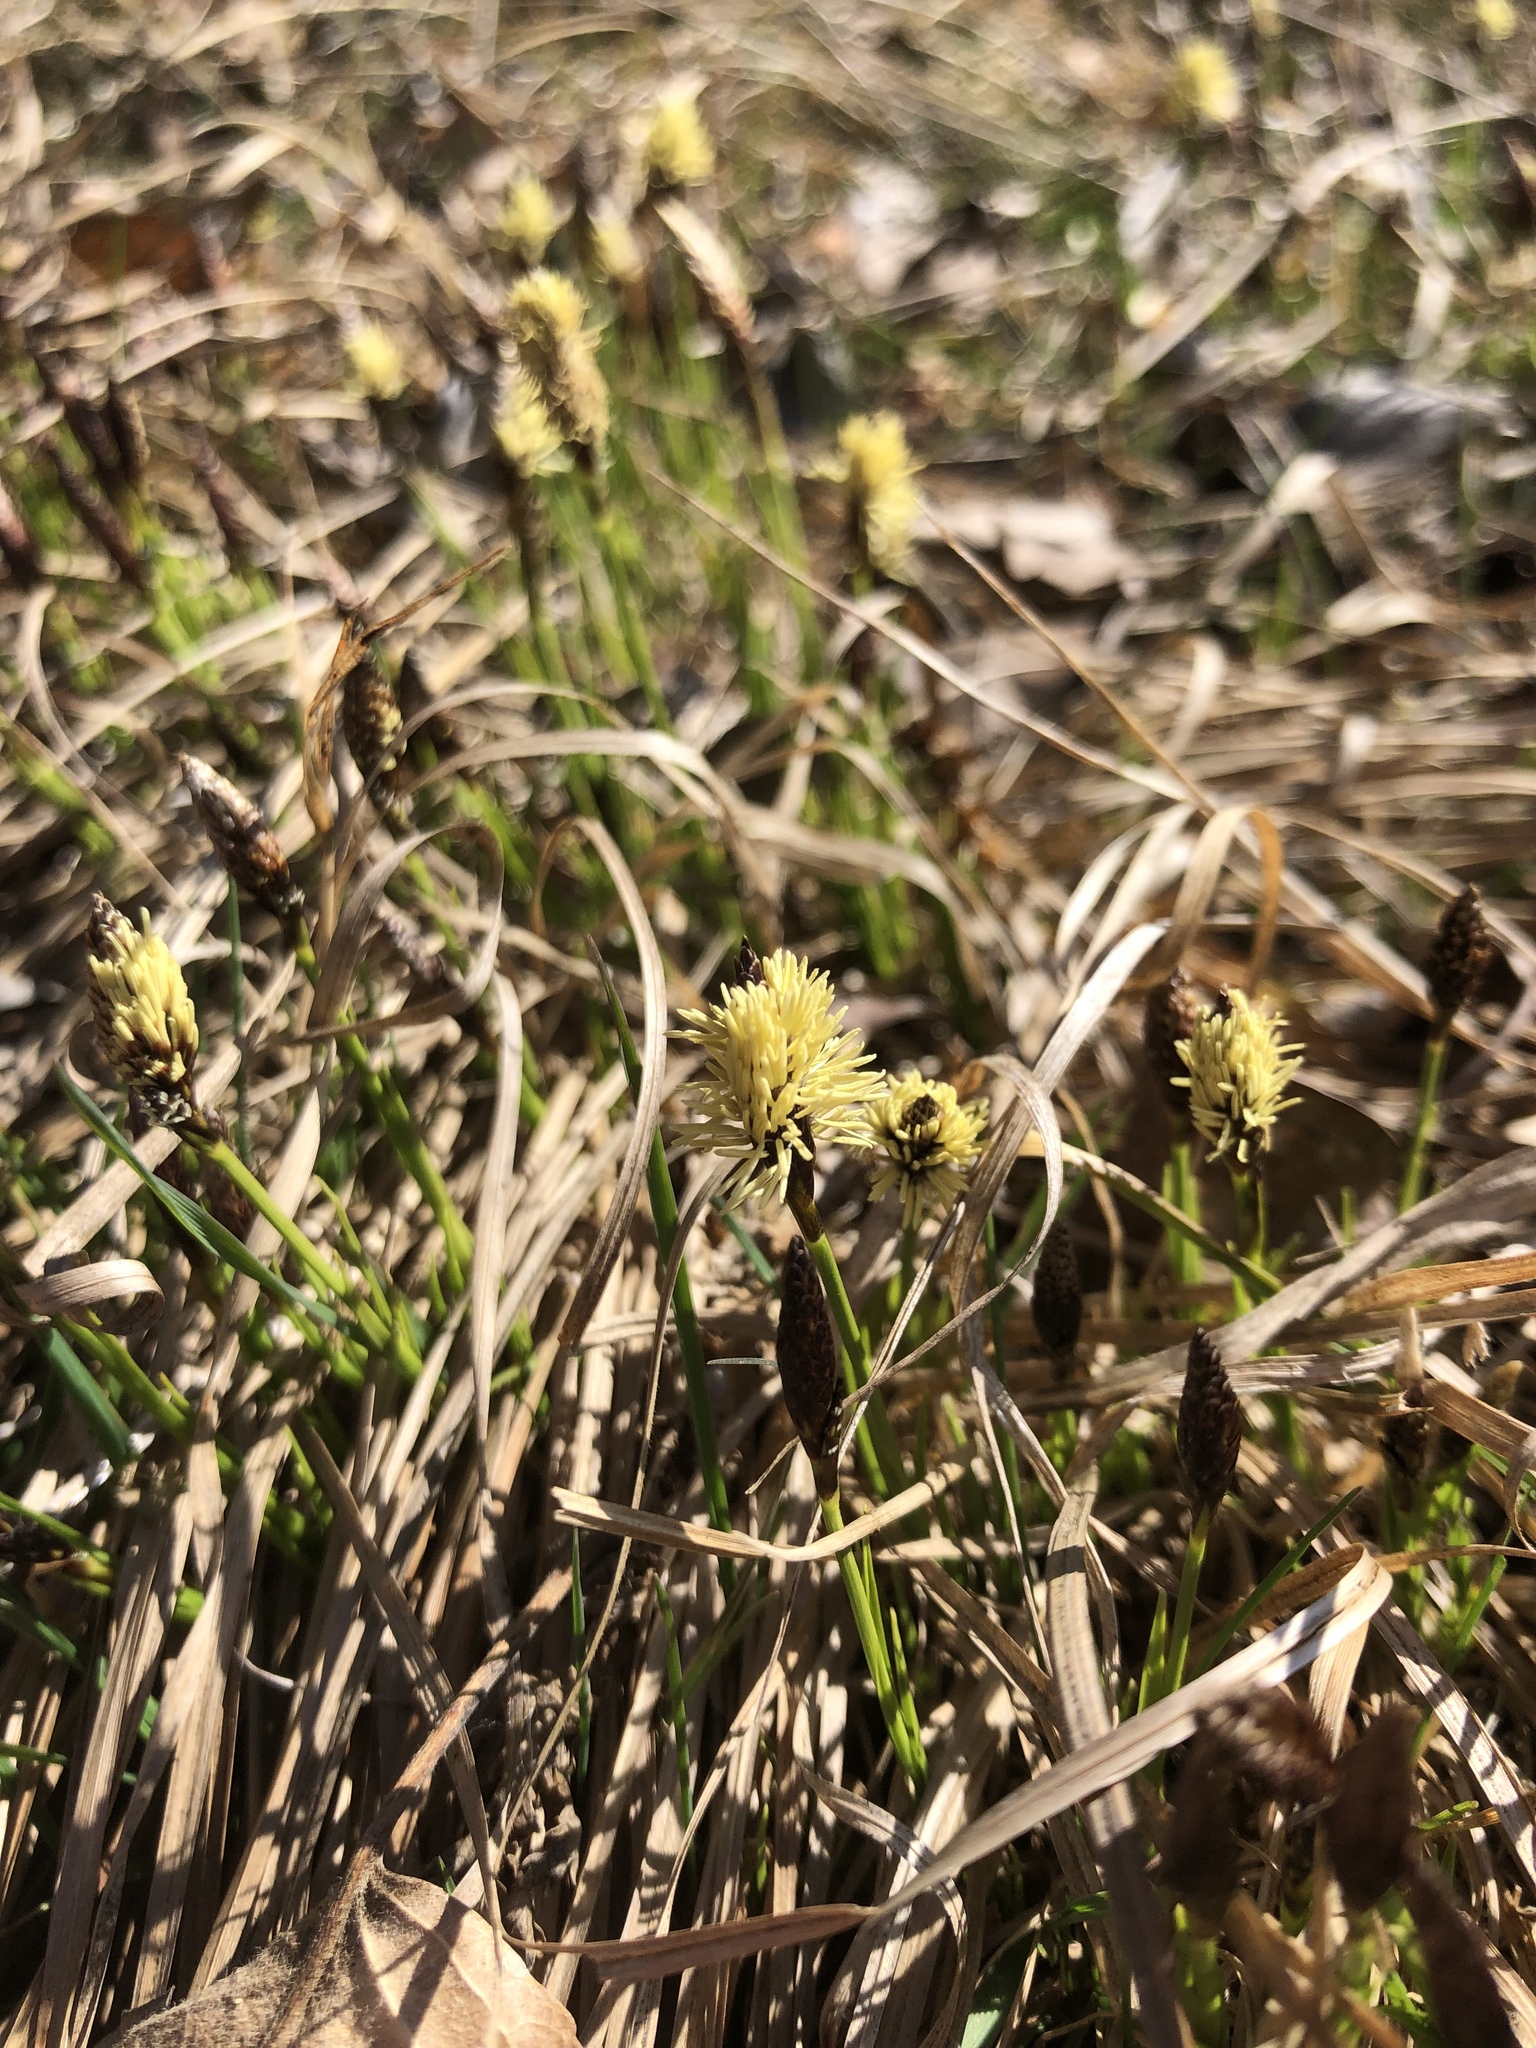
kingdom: Plantae
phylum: Tracheophyta
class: Liliopsida
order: Poales
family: Cyperaceae
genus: Carex
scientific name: Carex humilis
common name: Dwarf sedge
